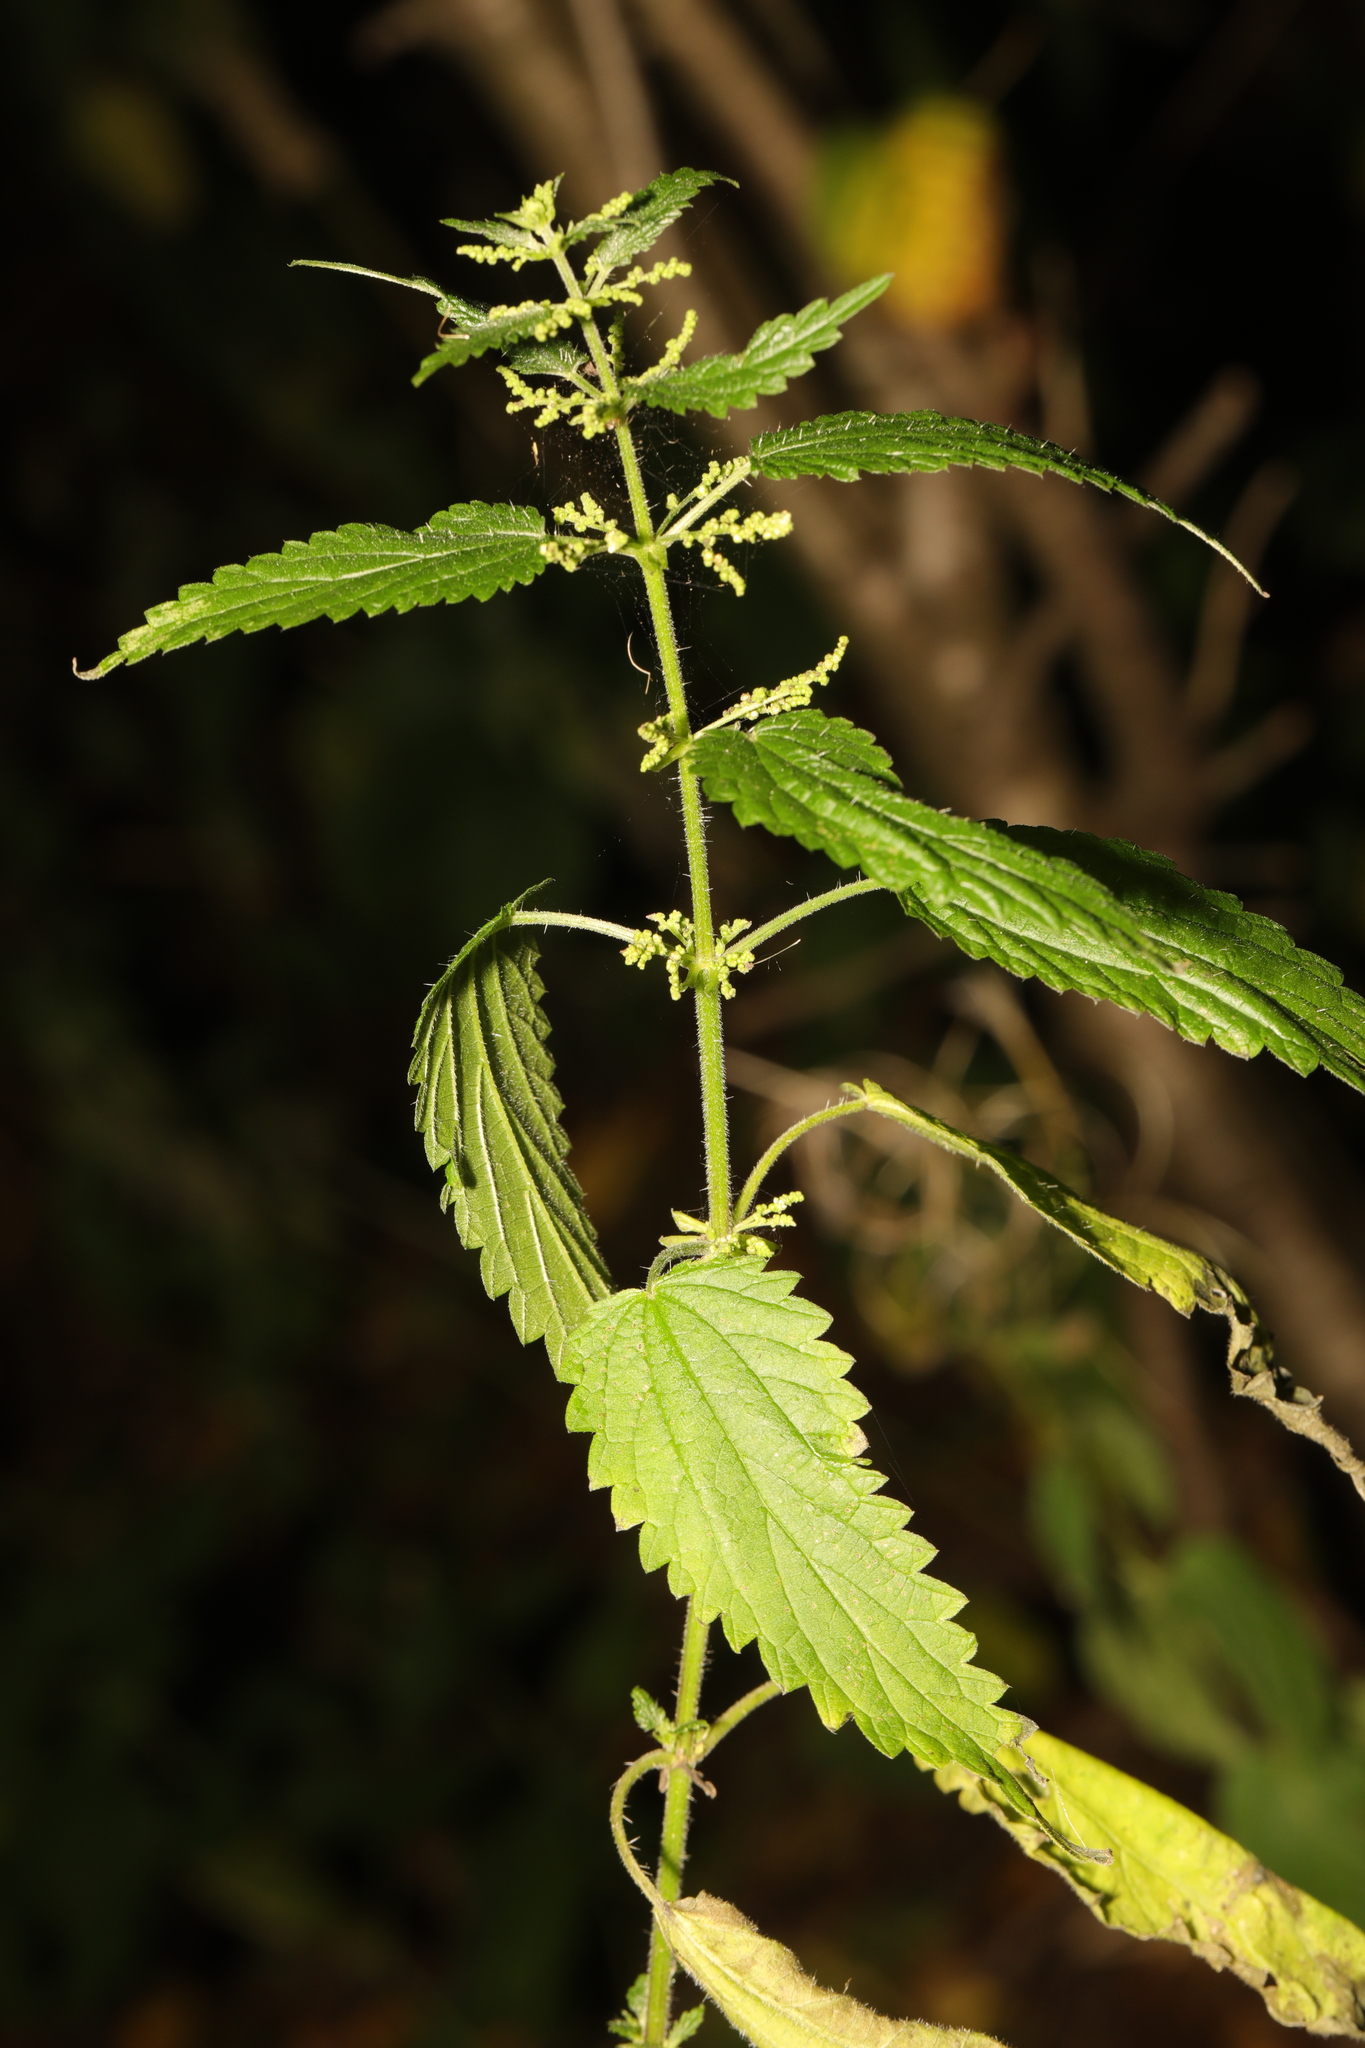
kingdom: Plantae
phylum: Tracheophyta
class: Magnoliopsida
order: Rosales
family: Urticaceae
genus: Urtica
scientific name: Urtica dioica
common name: Common nettle
